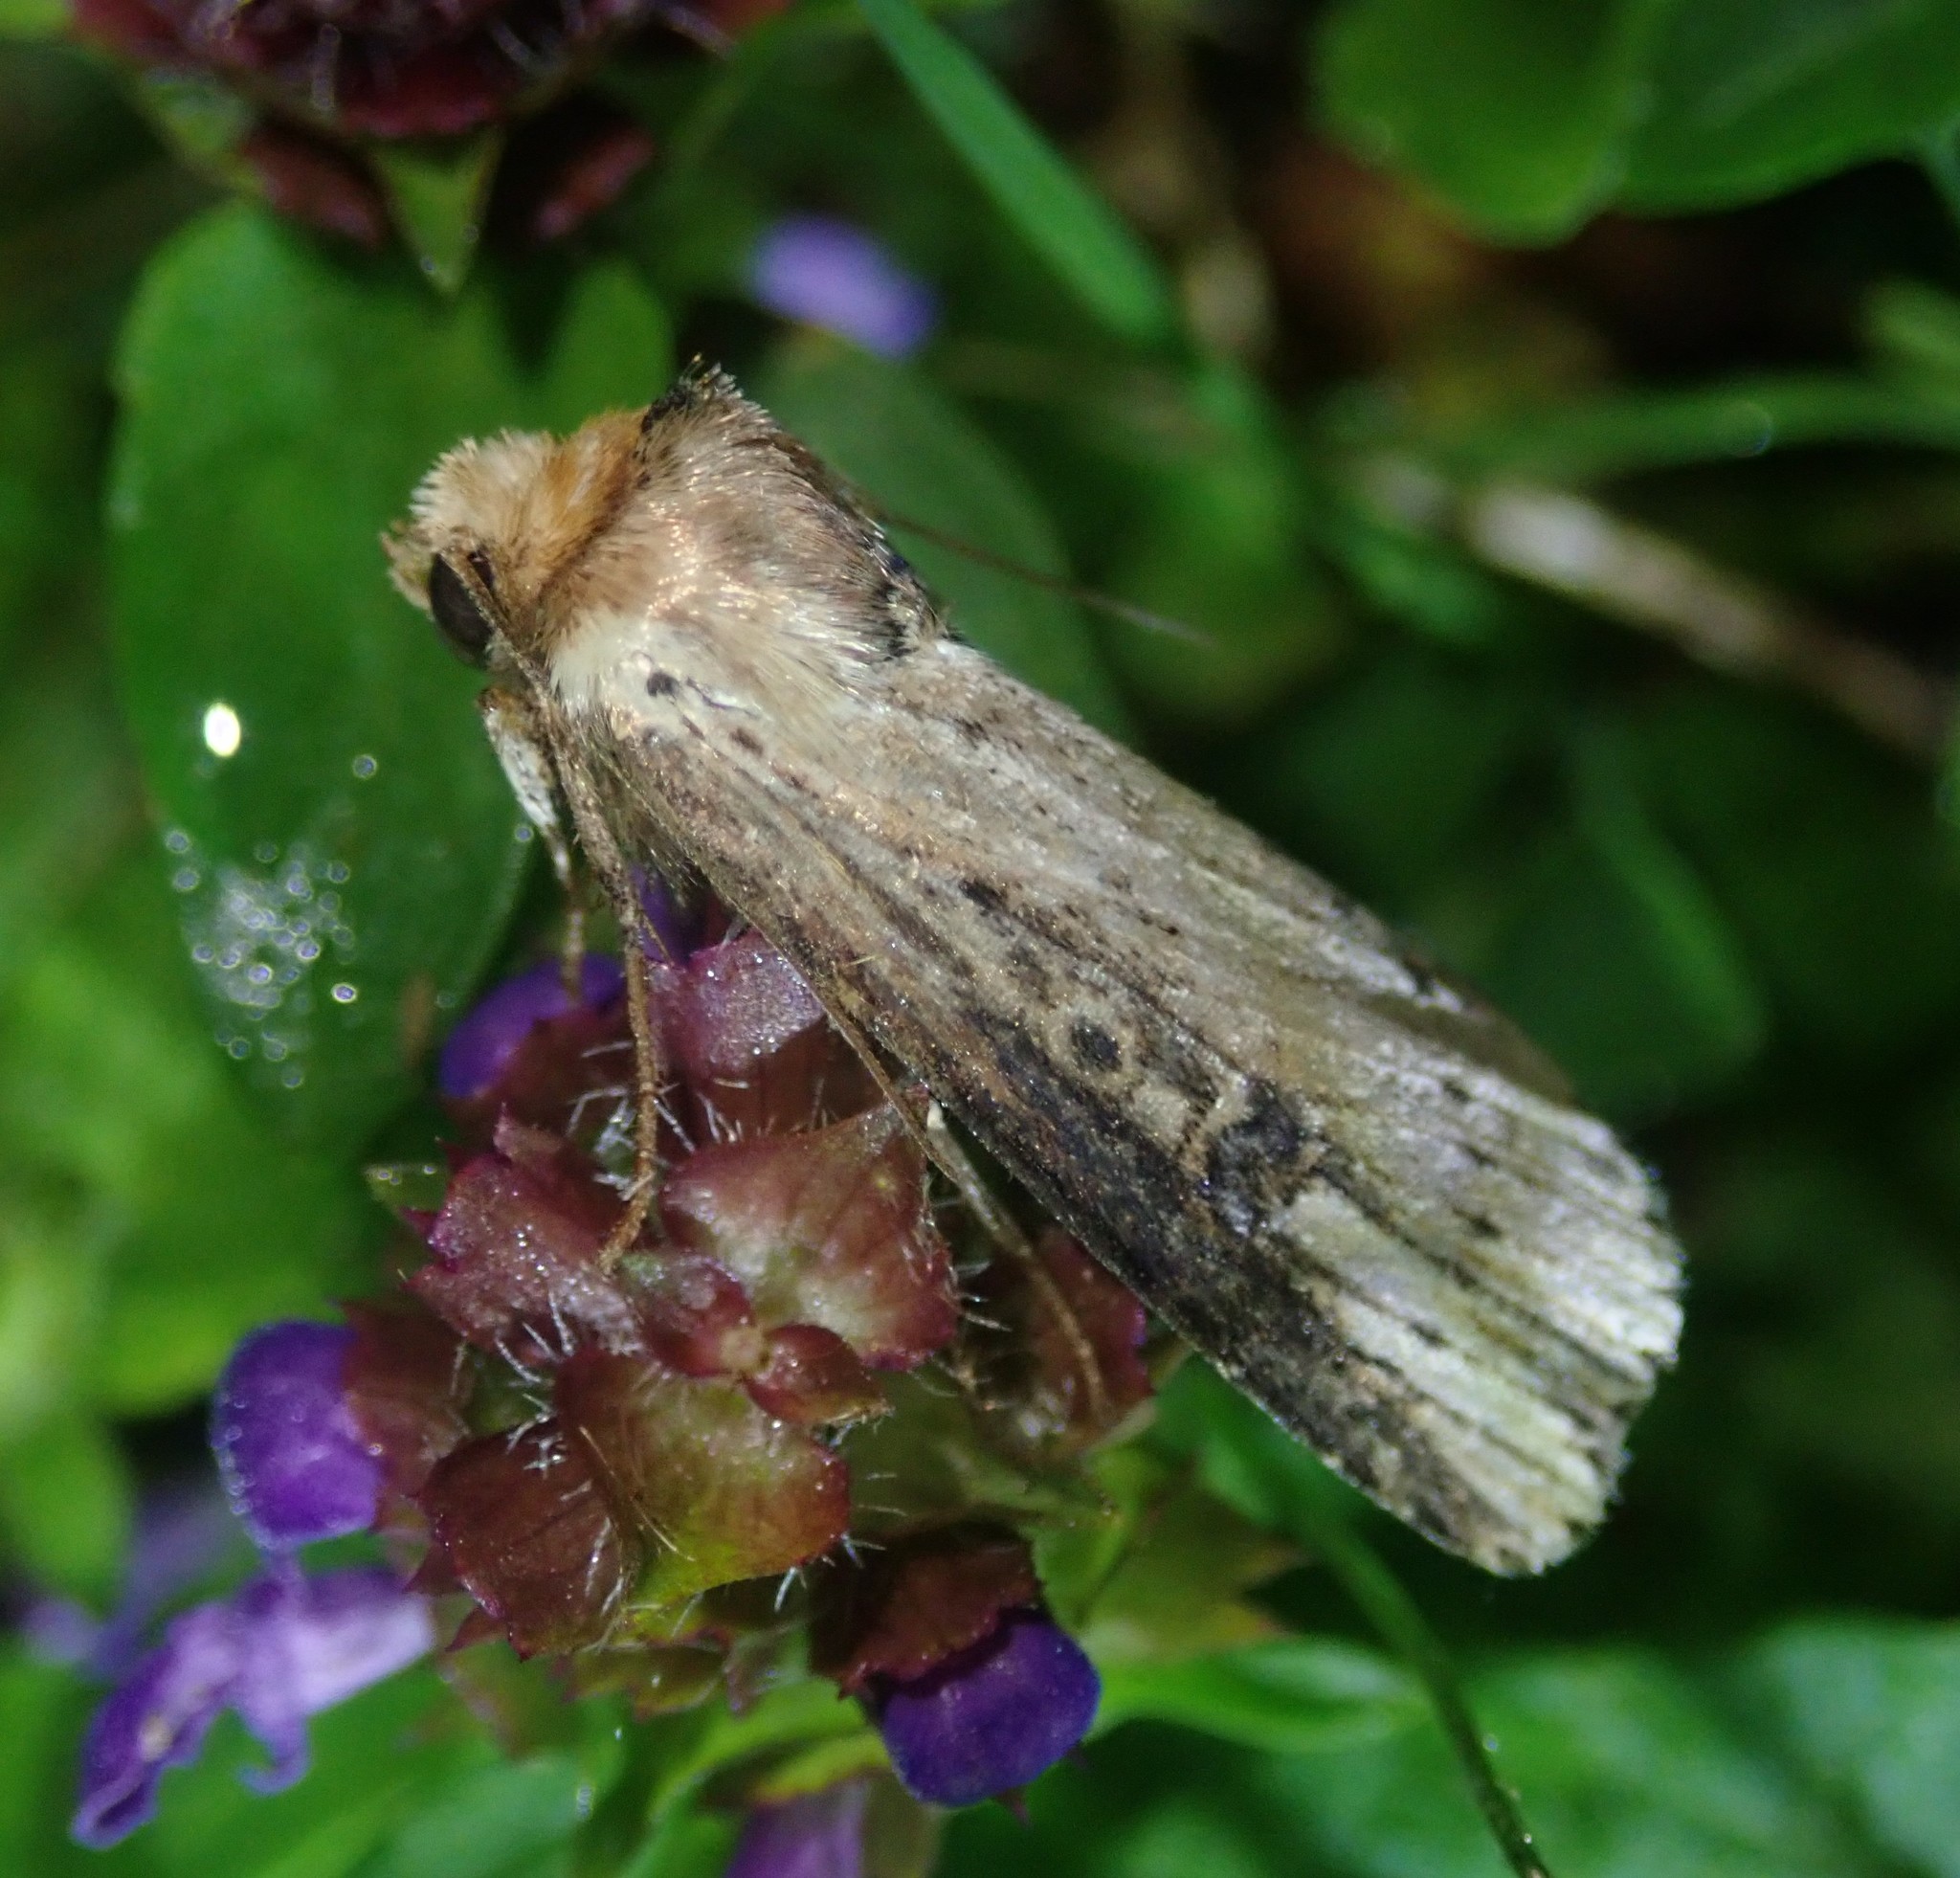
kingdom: Animalia
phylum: Arthropoda
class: Insecta
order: Lepidoptera
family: Noctuidae
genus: Axylia
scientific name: Axylia putris
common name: Flame
